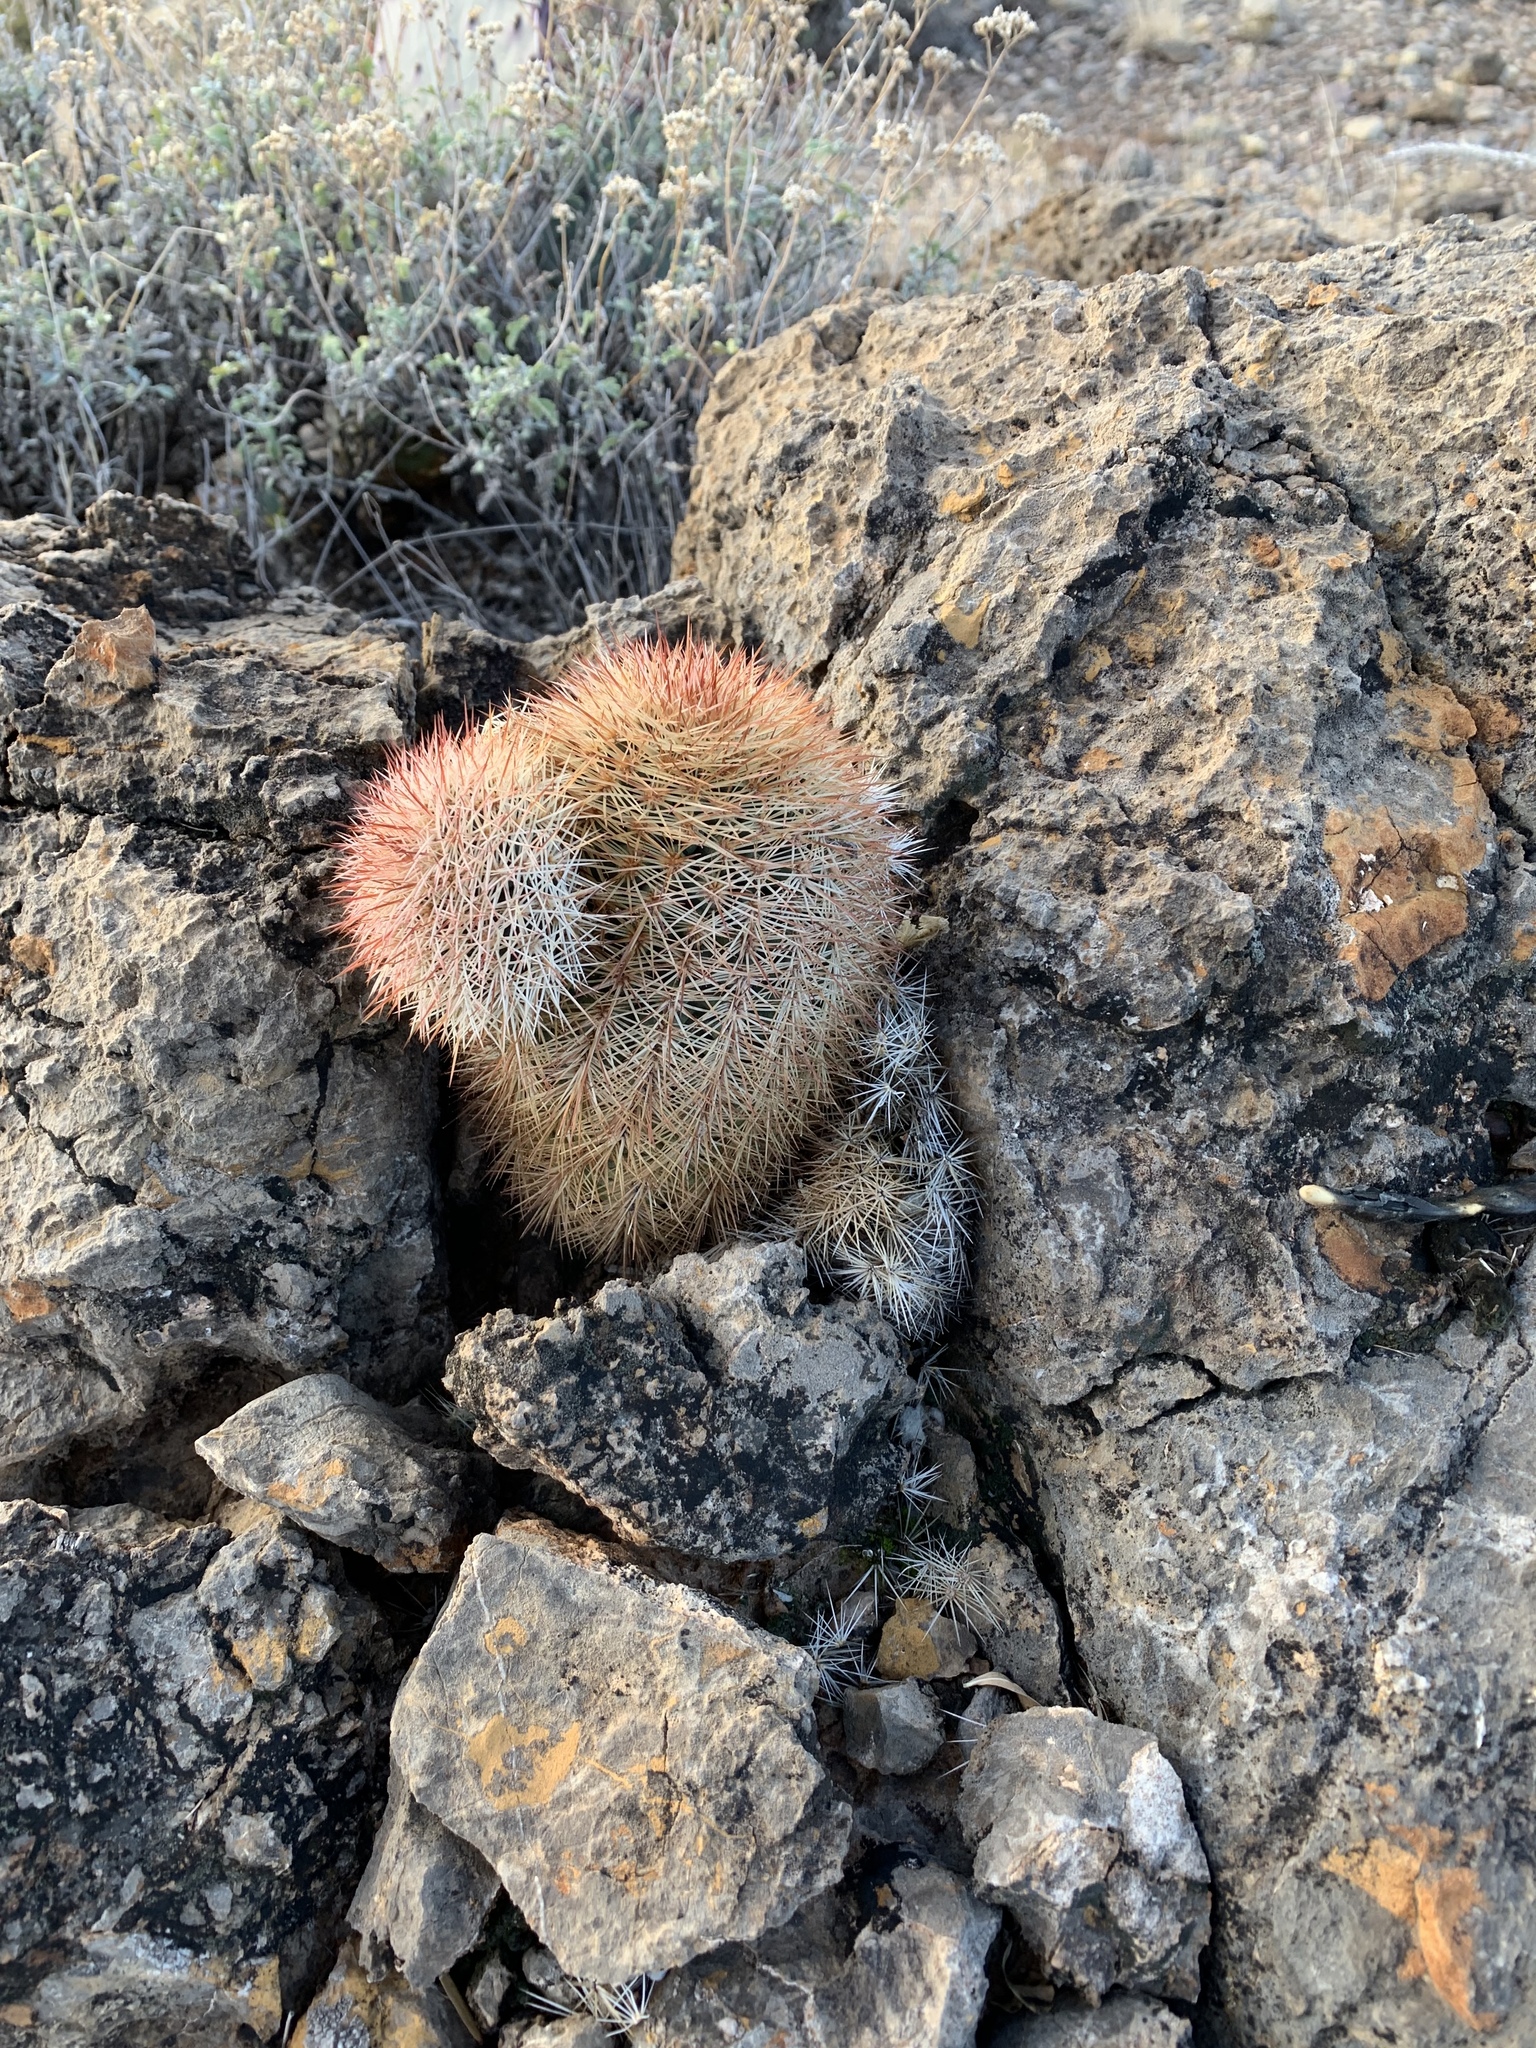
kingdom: Plantae
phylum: Tracheophyta
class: Magnoliopsida
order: Caryophyllales
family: Cactaceae
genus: Echinocereus
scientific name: Echinocereus dasyacanthus
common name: Spiny hedgehog cactus
